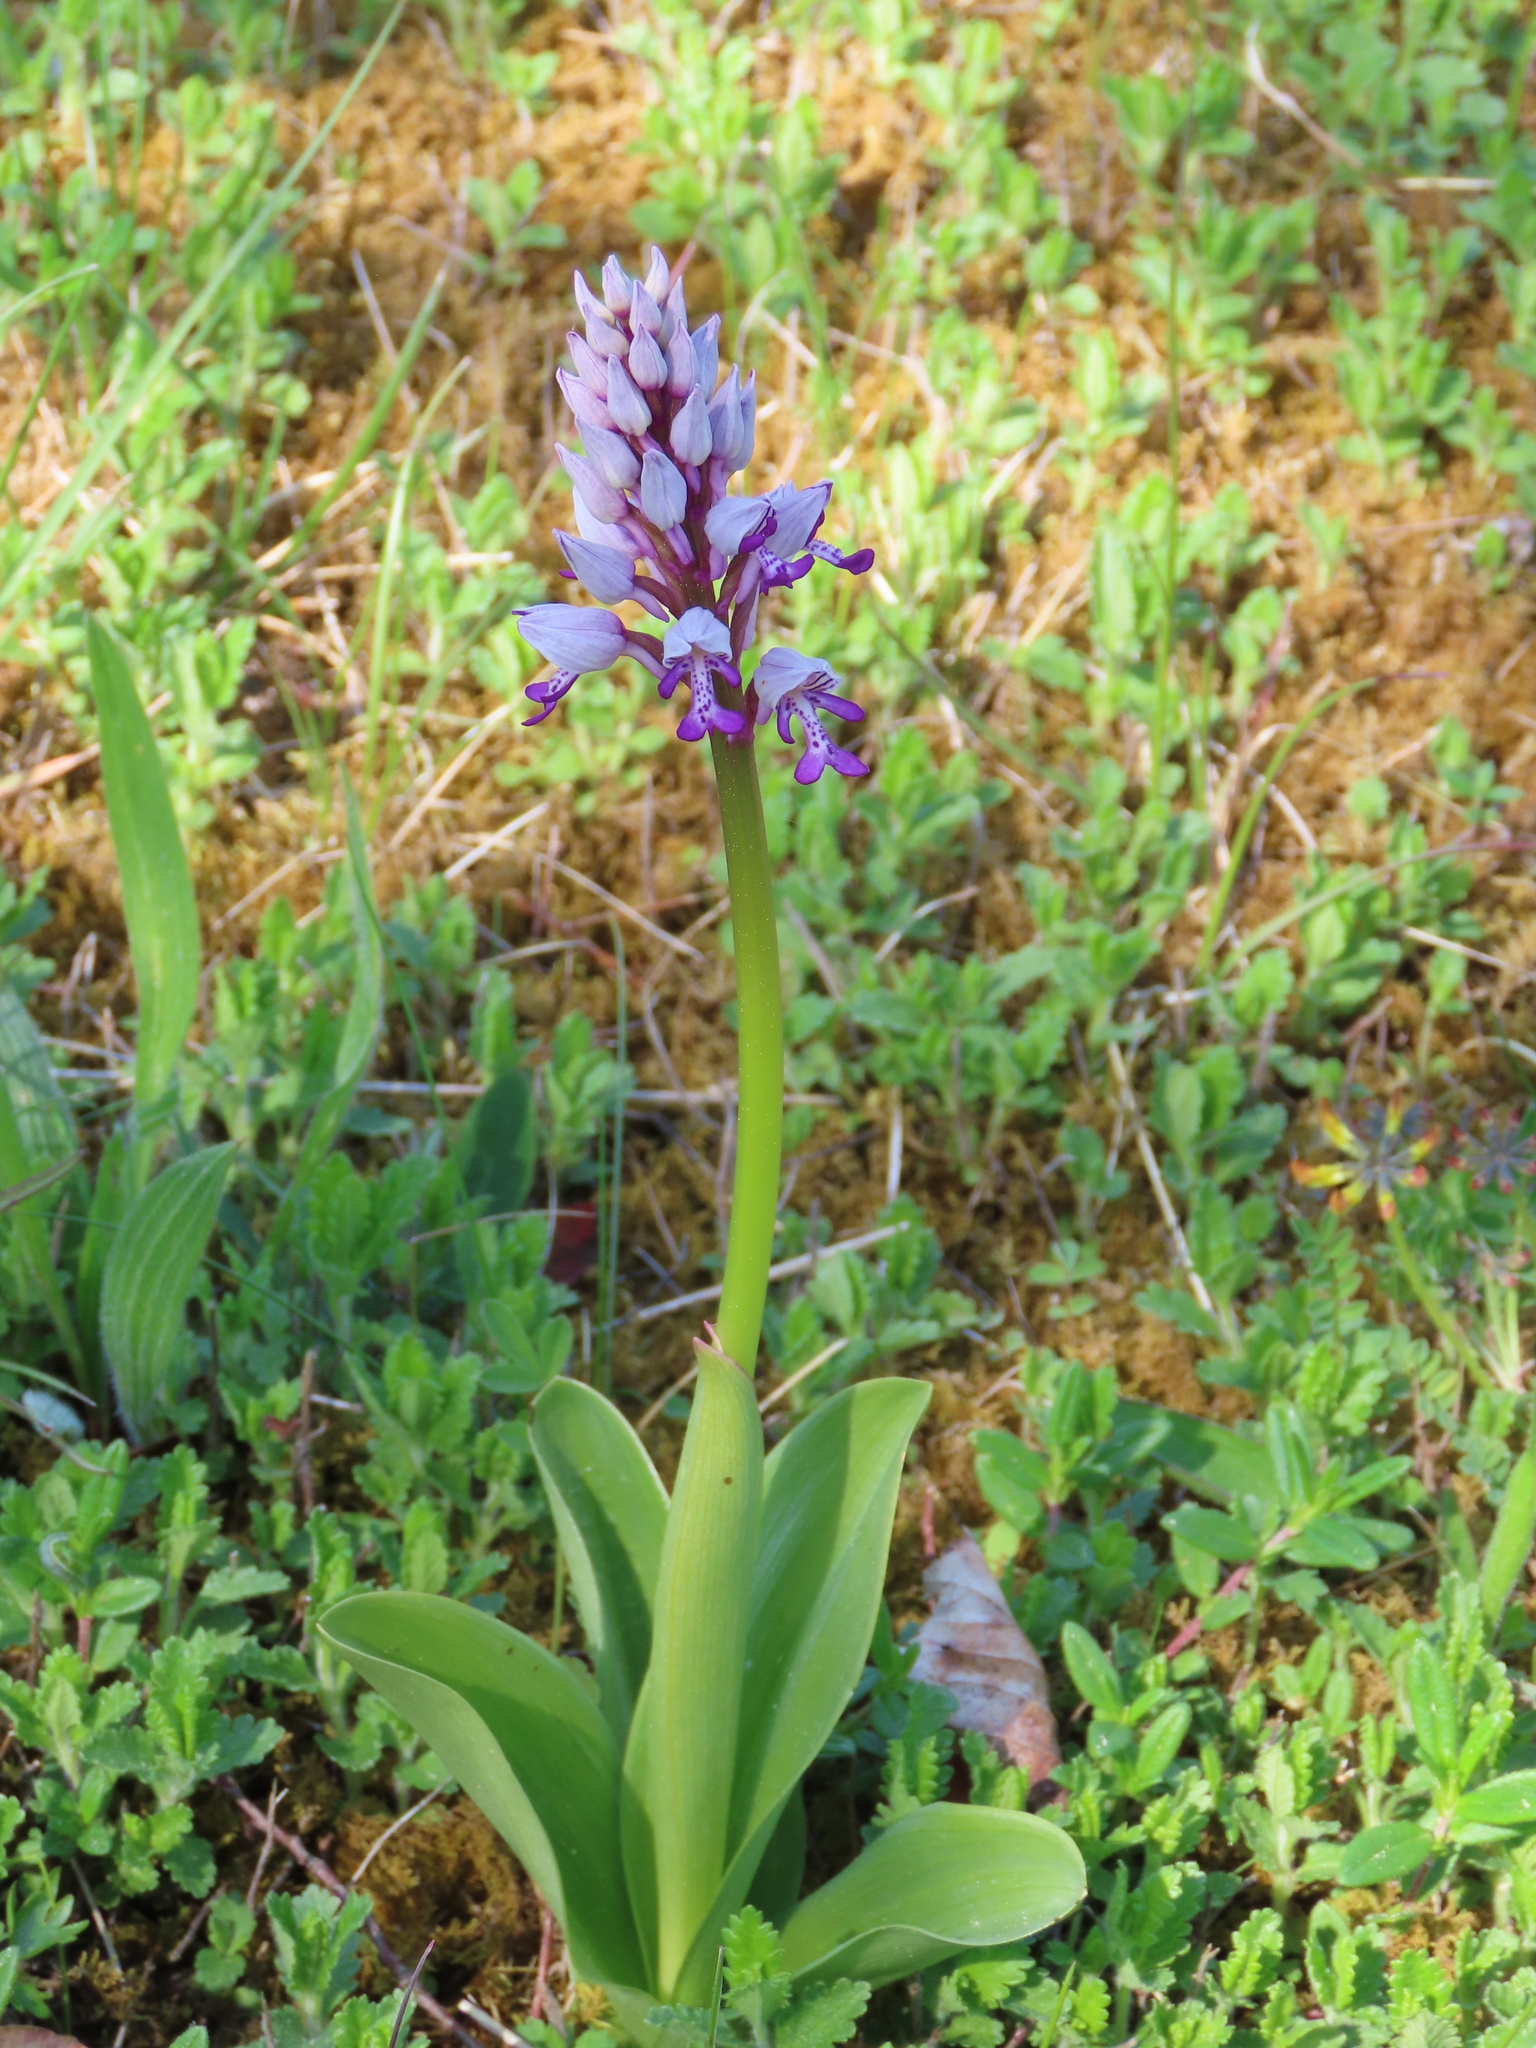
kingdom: Plantae
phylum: Tracheophyta
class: Liliopsida
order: Asparagales
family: Orchidaceae
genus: Orchis
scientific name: Orchis militaris
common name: Military orchid
